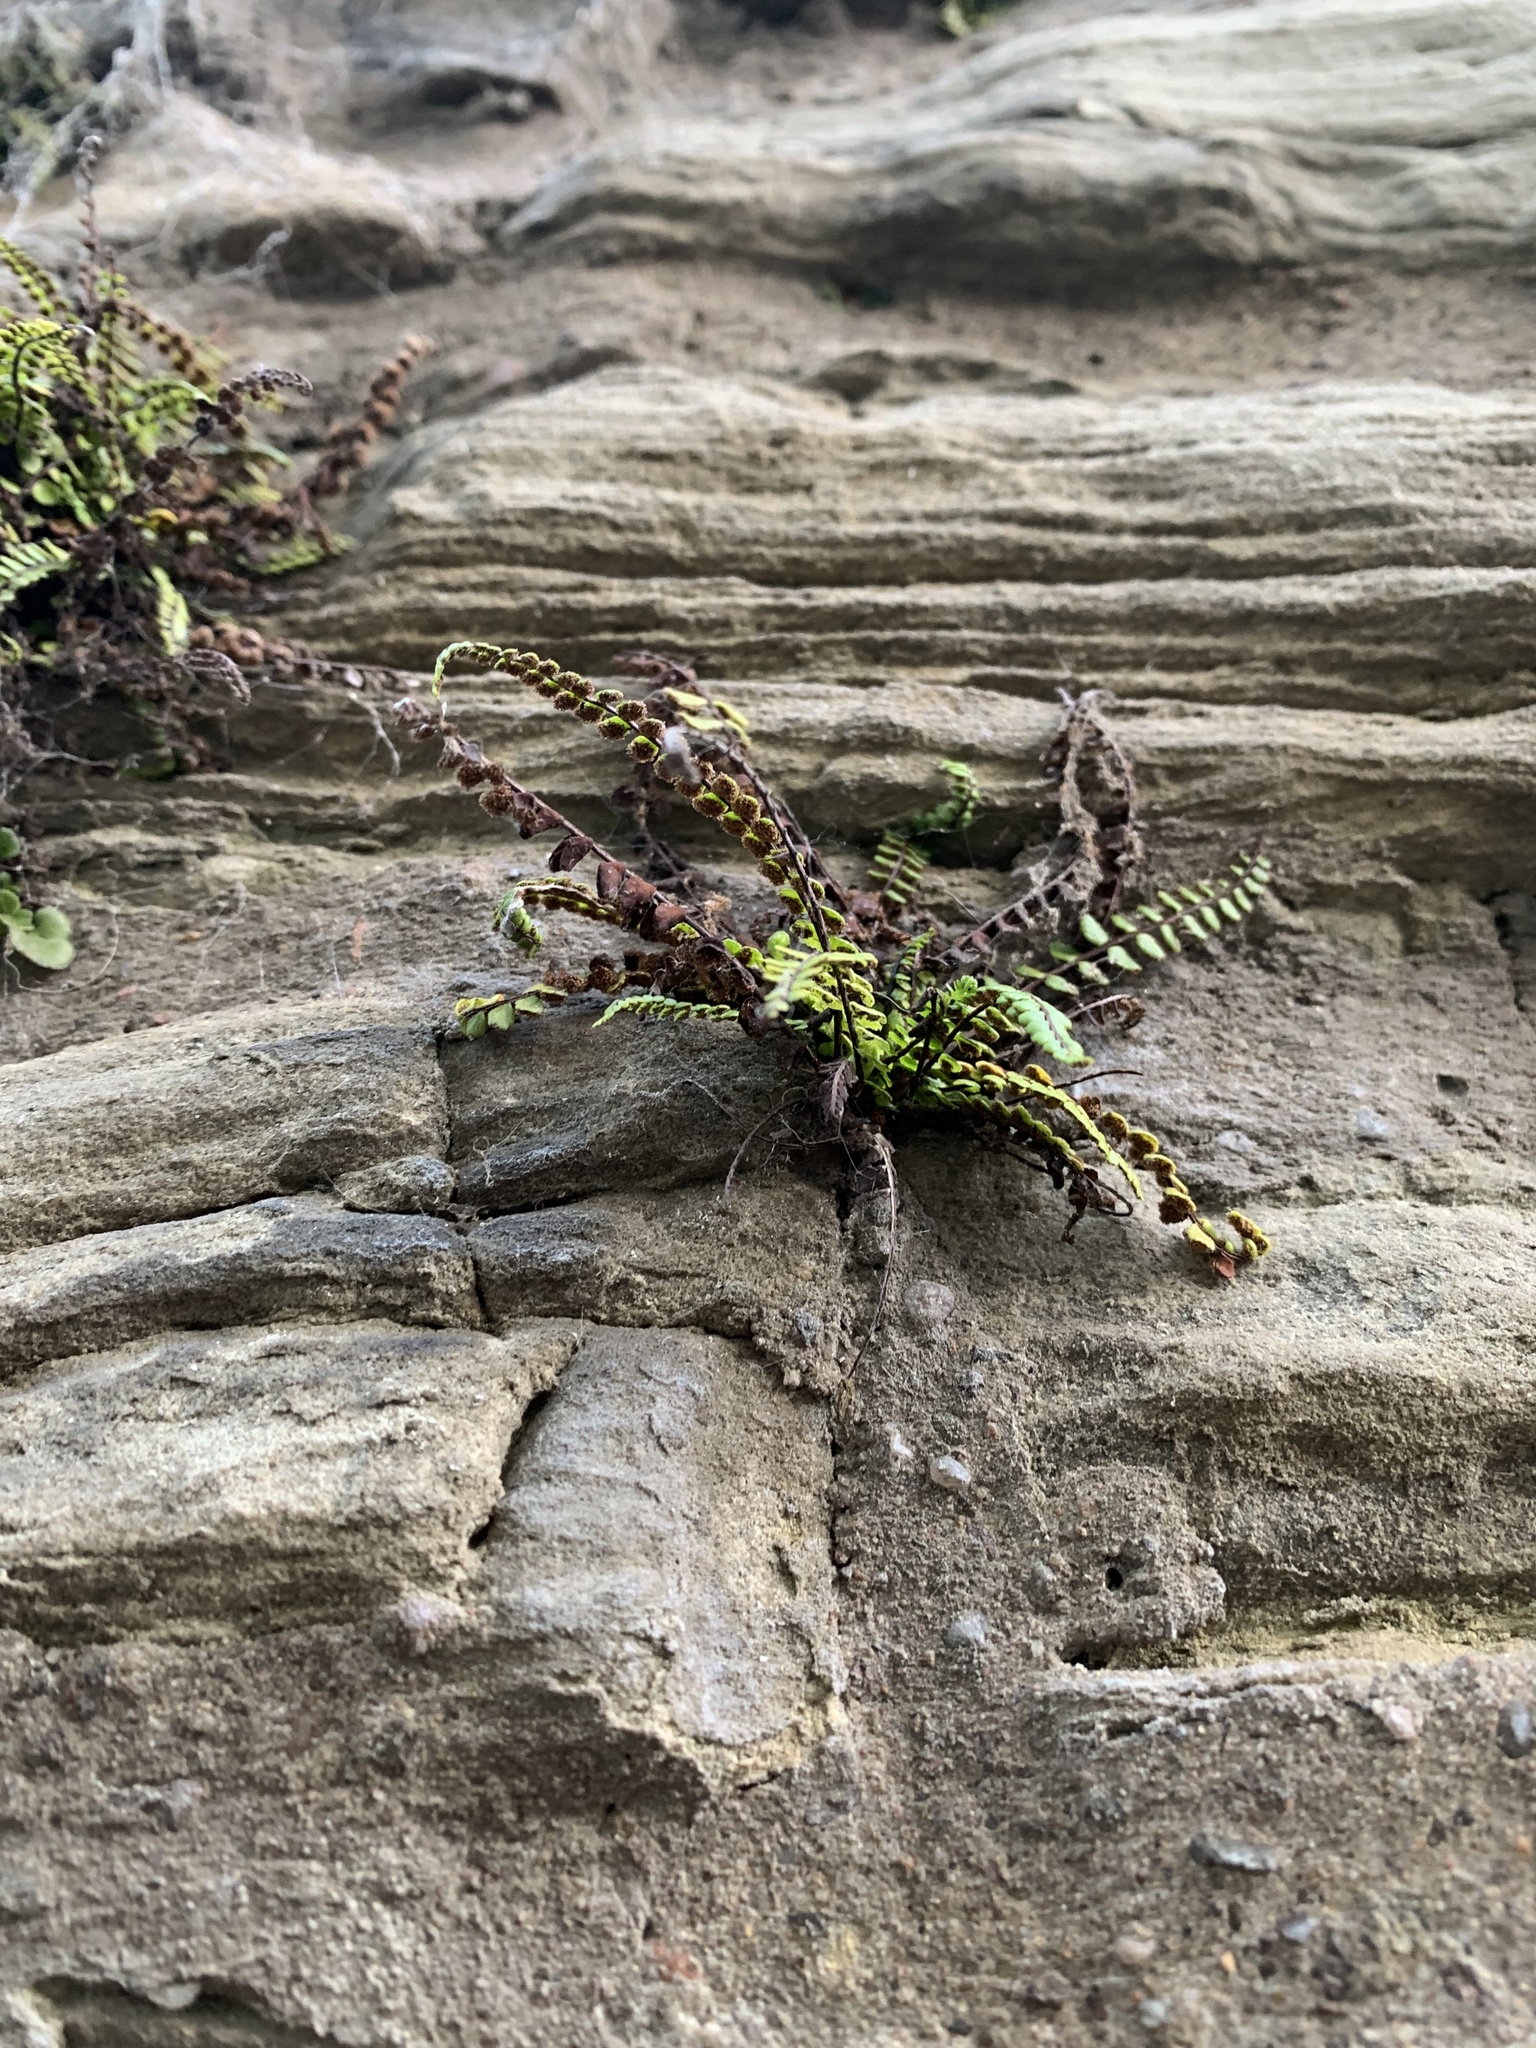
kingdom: Plantae
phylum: Tracheophyta
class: Polypodiopsida
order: Polypodiales
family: Aspleniaceae
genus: Asplenium
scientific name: Asplenium trichomanes
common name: Maidenhair spleenwort
